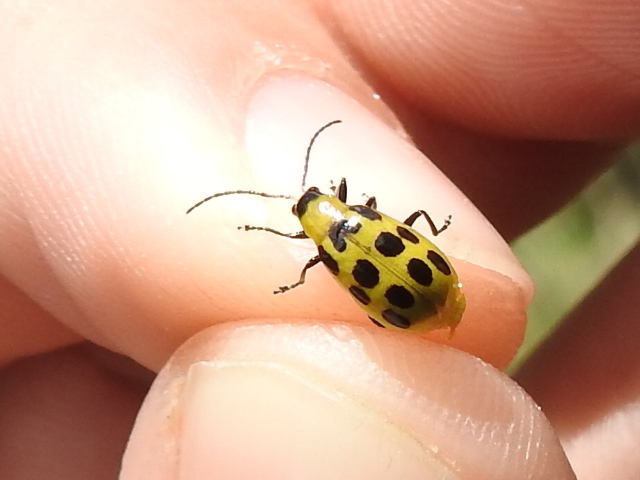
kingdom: Animalia
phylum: Arthropoda
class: Insecta
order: Coleoptera
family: Chrysomelidae
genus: Diabrotica
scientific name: Diabrotica undecimpunctata
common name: Spotted cucumber beetle
